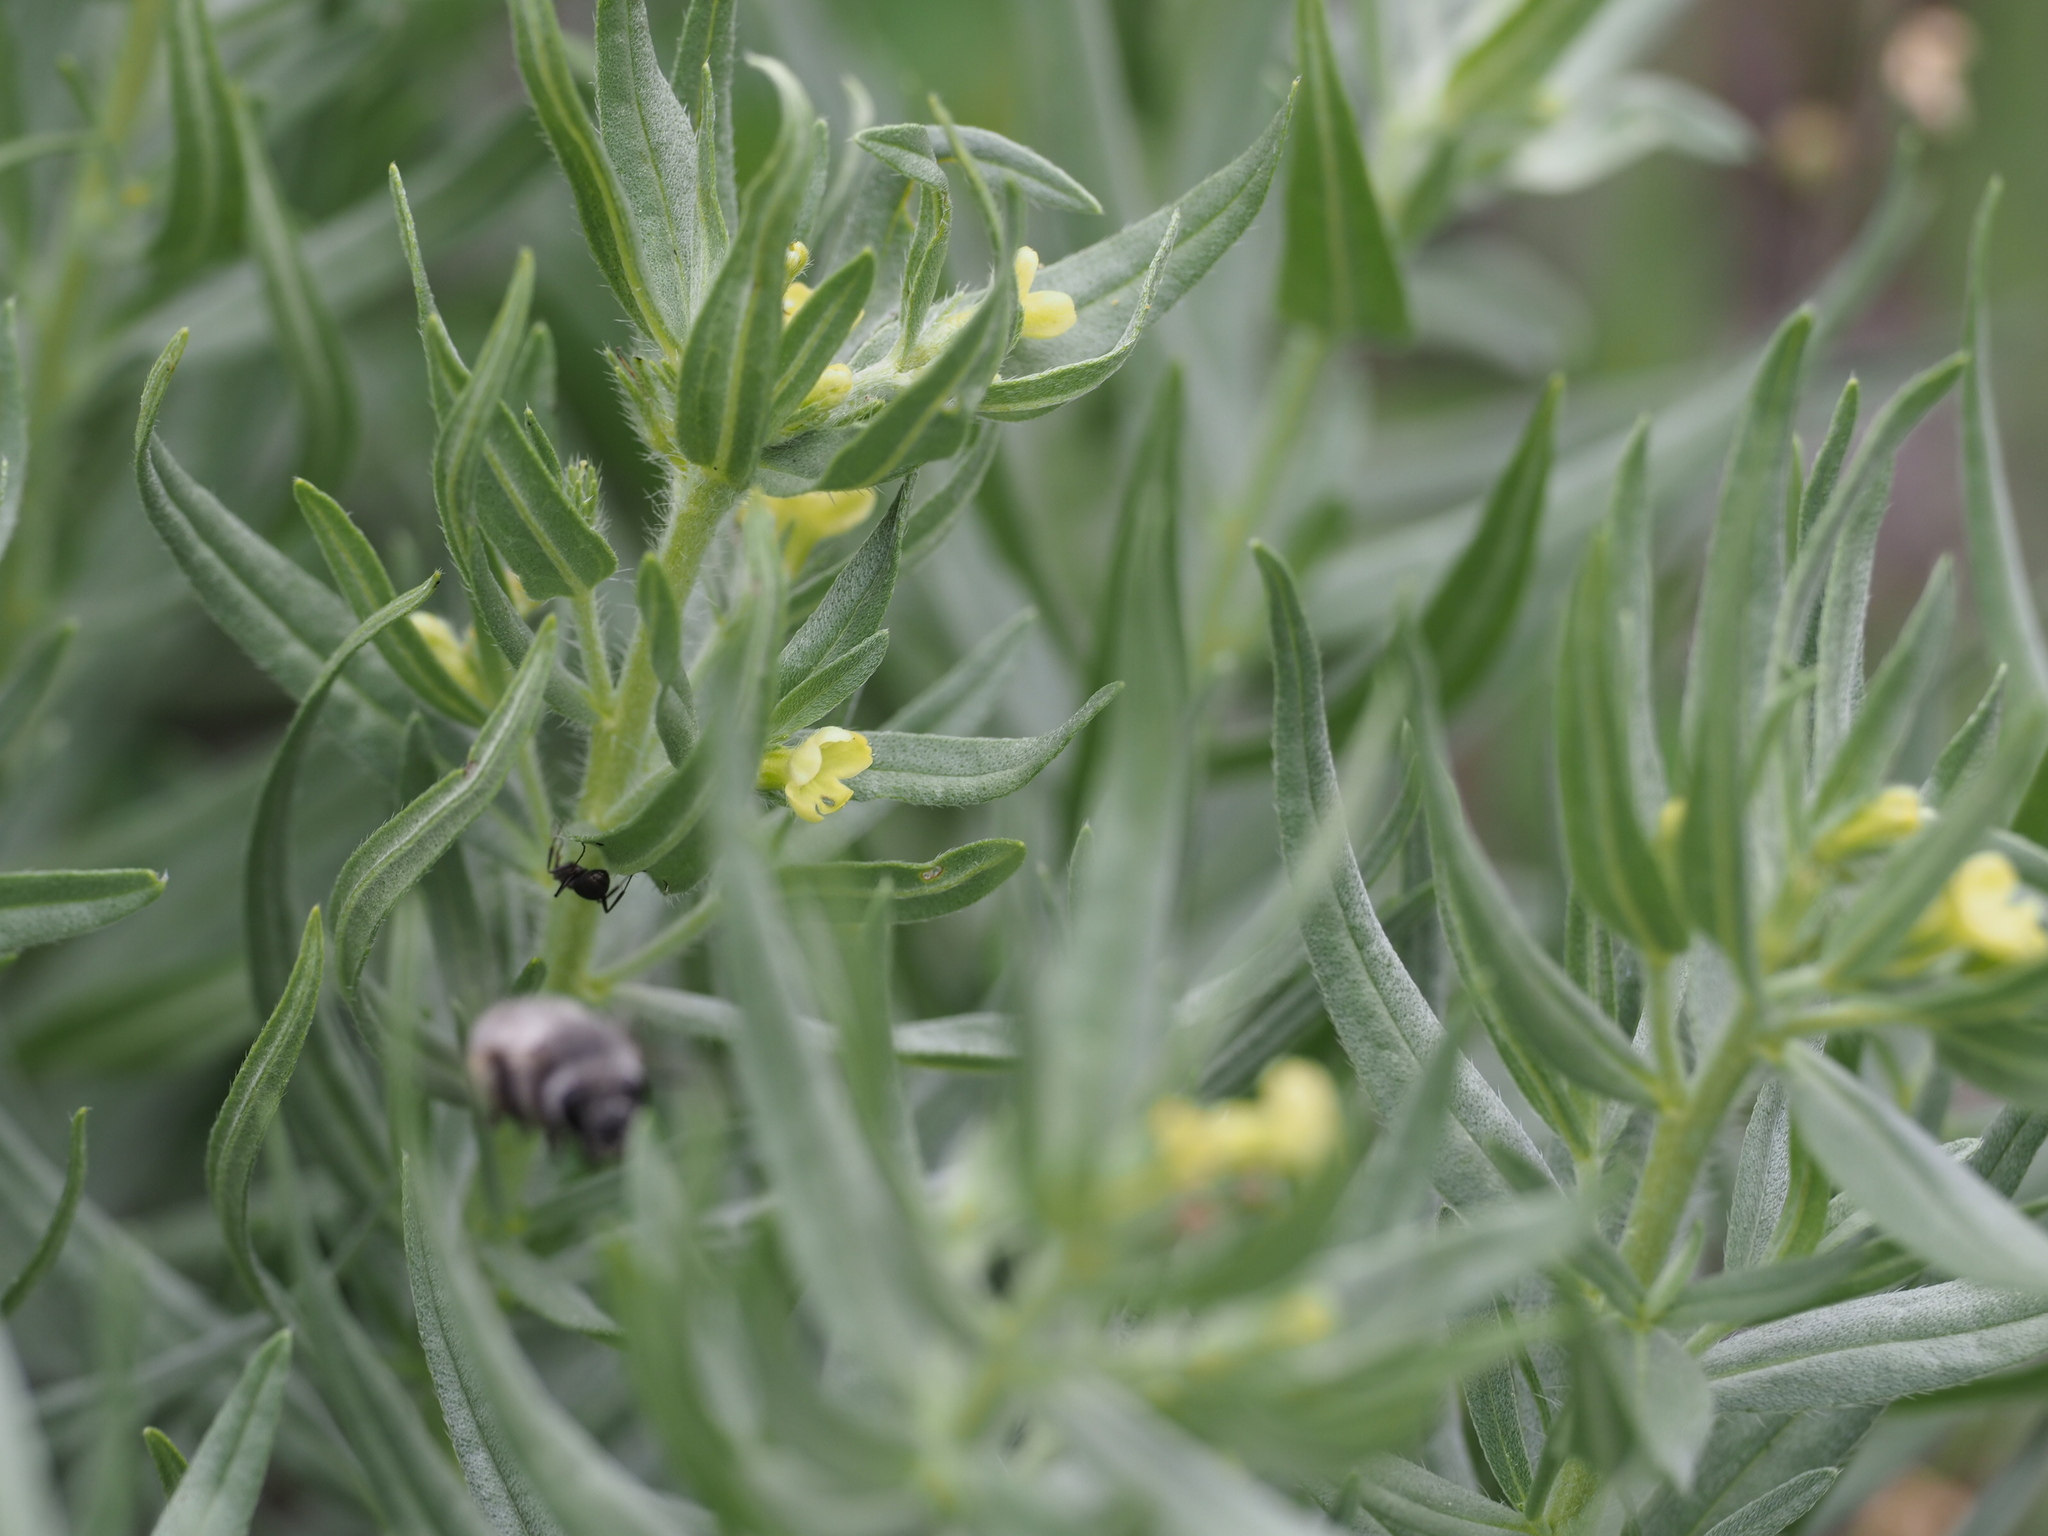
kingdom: Plantae
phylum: Tracheophyta
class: Magnoliopsida
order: Boraginales
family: Boraginaceae
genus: Lithospermum
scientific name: Lithospermum ruderale
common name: Western gromwell
